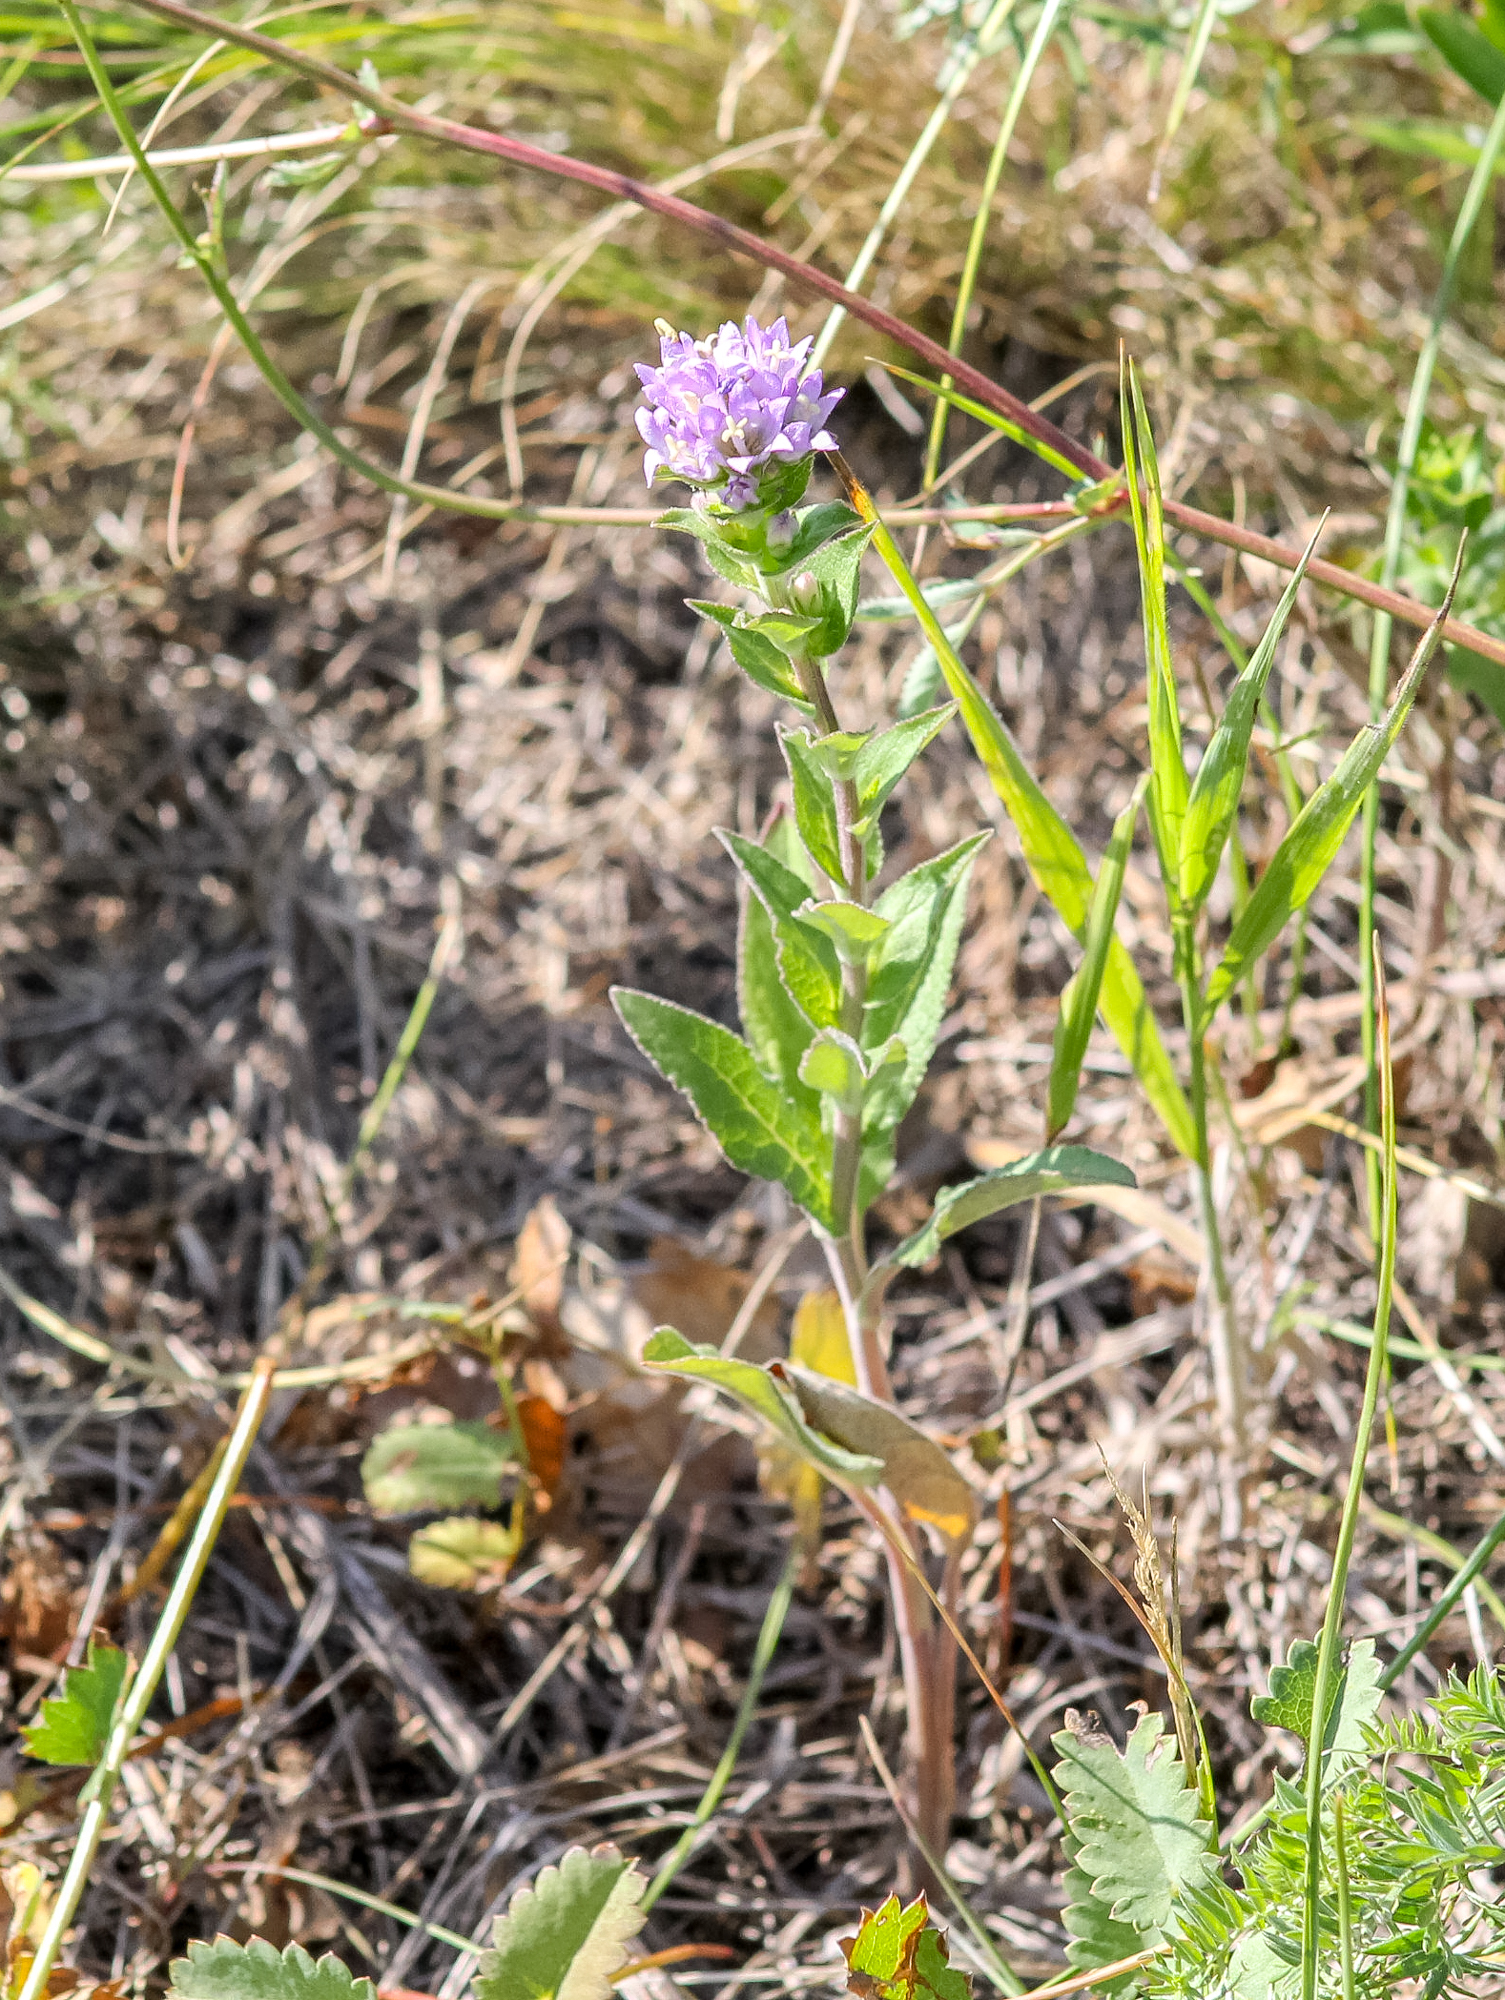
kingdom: Plantae
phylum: Tracheophyta
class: Magnoliopsida
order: Asterales
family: Campanulaceae
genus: Campanula
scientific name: Campanula glomerata
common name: Clustered bellflower
